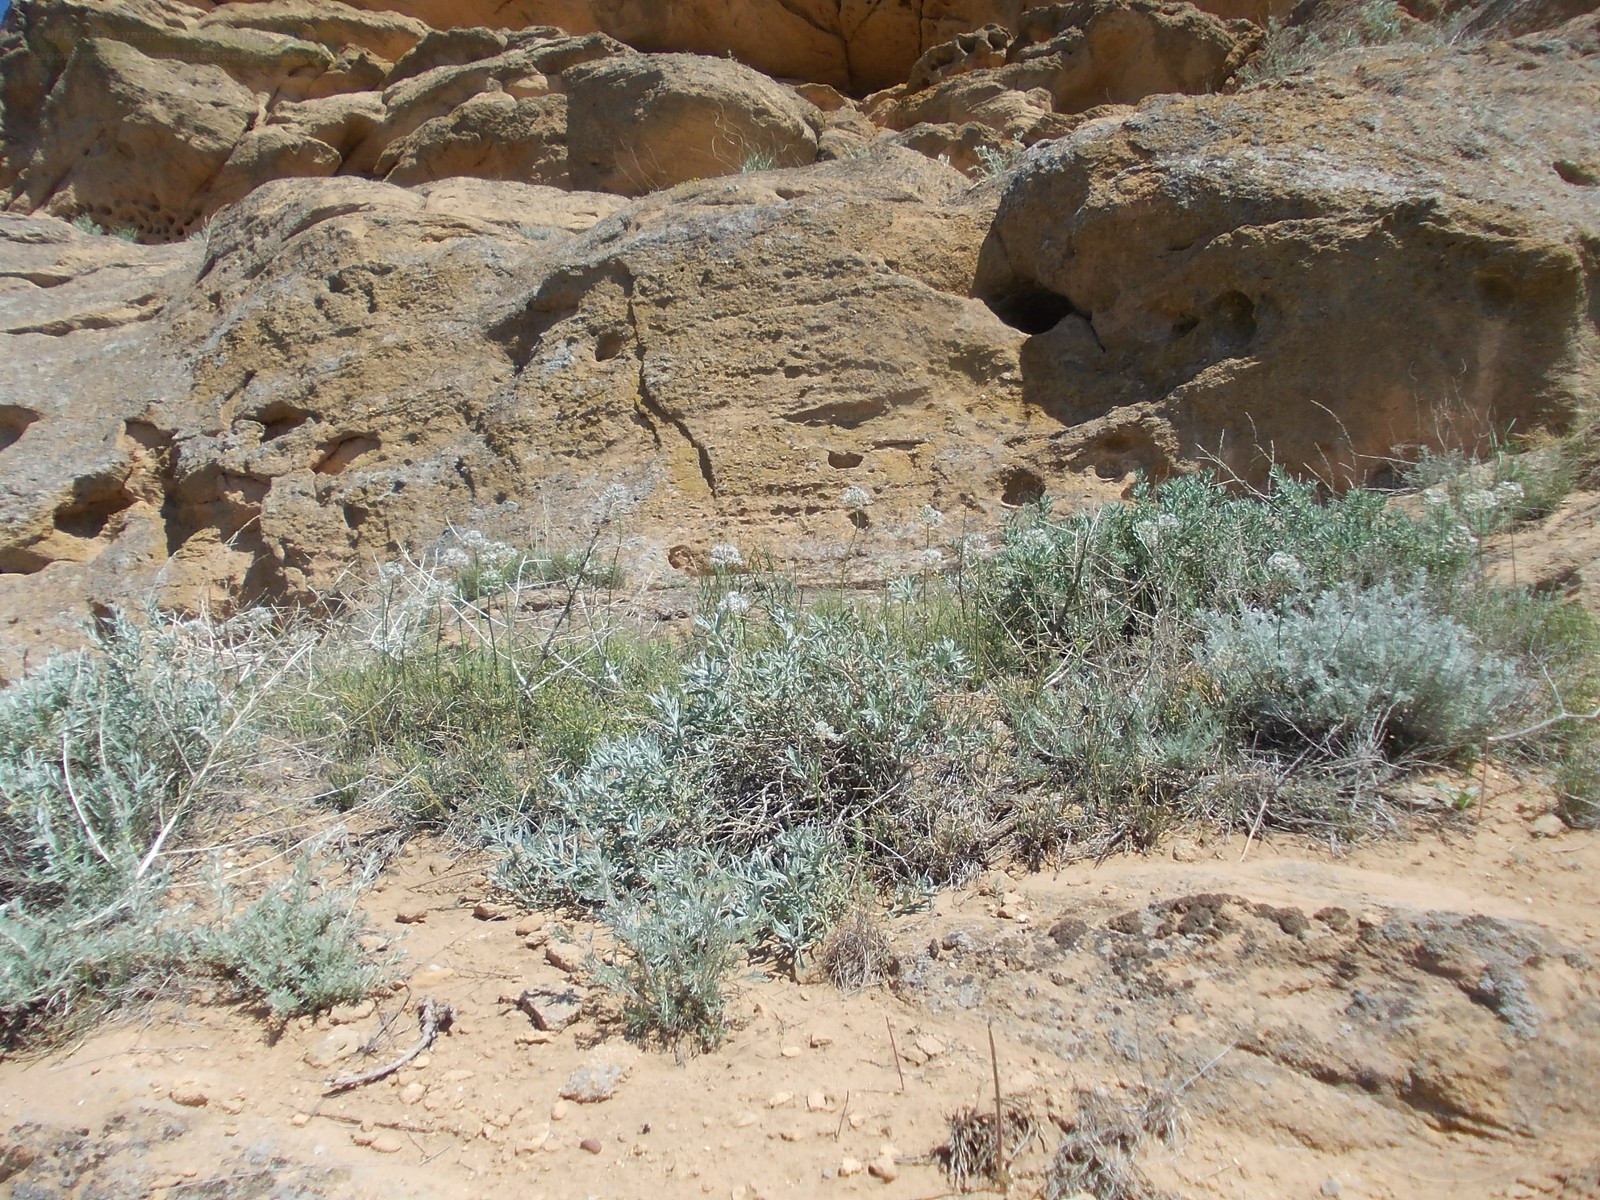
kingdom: Plantae
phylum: Tracheophyta
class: Liliopsida
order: Asparagales
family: Amaryllidaceae
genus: Allium
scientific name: Allium tulipifolium
